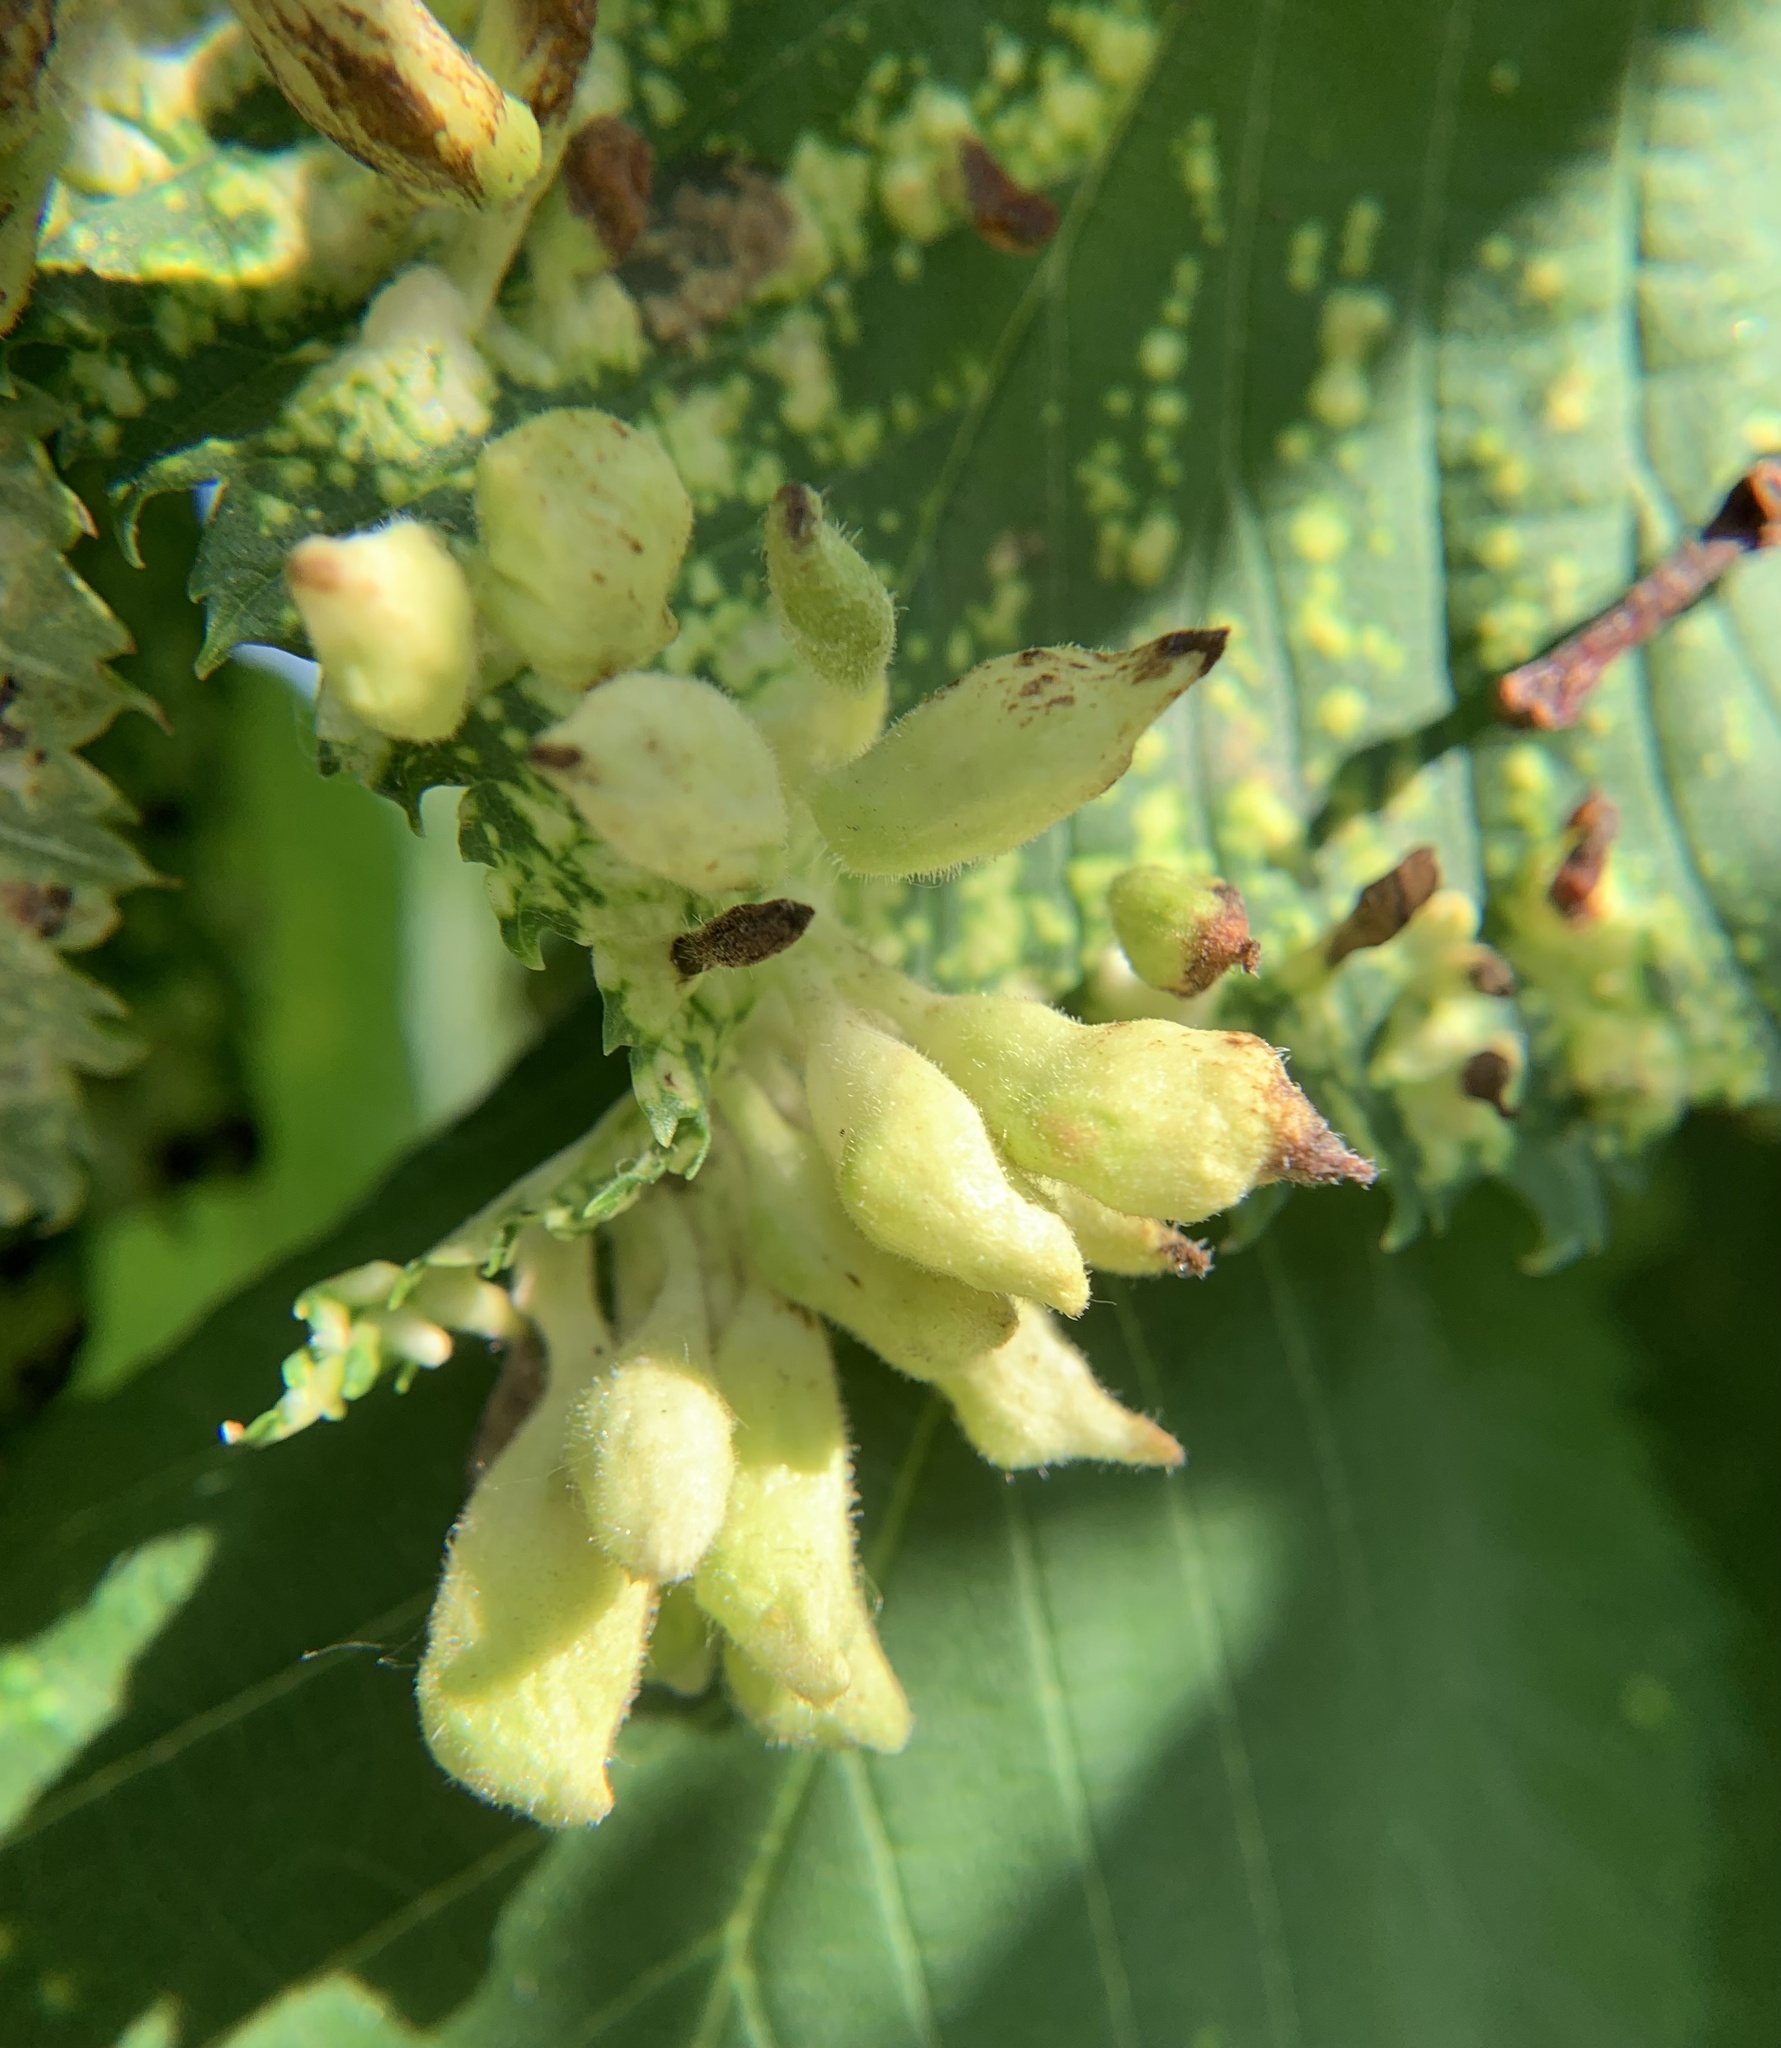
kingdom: Animalia
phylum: Arthropoda
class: Insecta
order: Hemiptera
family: Aphididae
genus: Tetraneura
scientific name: Tetraneura nigriabdominalis
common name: Aphid
